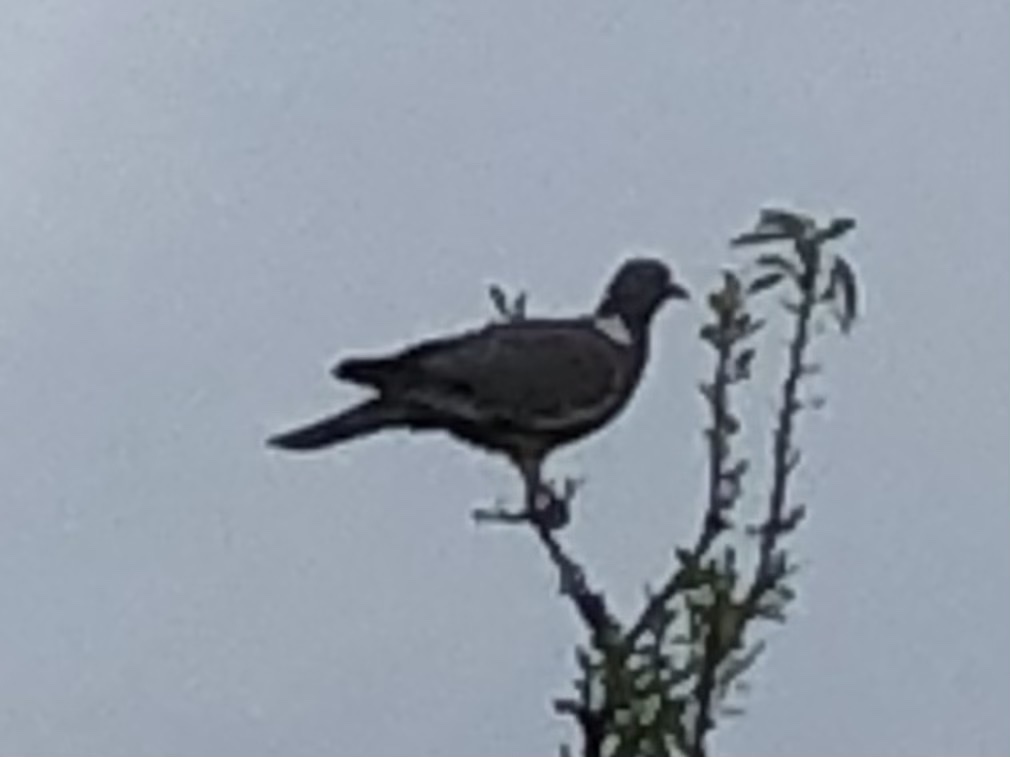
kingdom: Animalia
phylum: Chordata
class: Aves
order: Columbiformes
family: Columbidae
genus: Columba
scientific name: Columba palumbus
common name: Common wood pigeon
